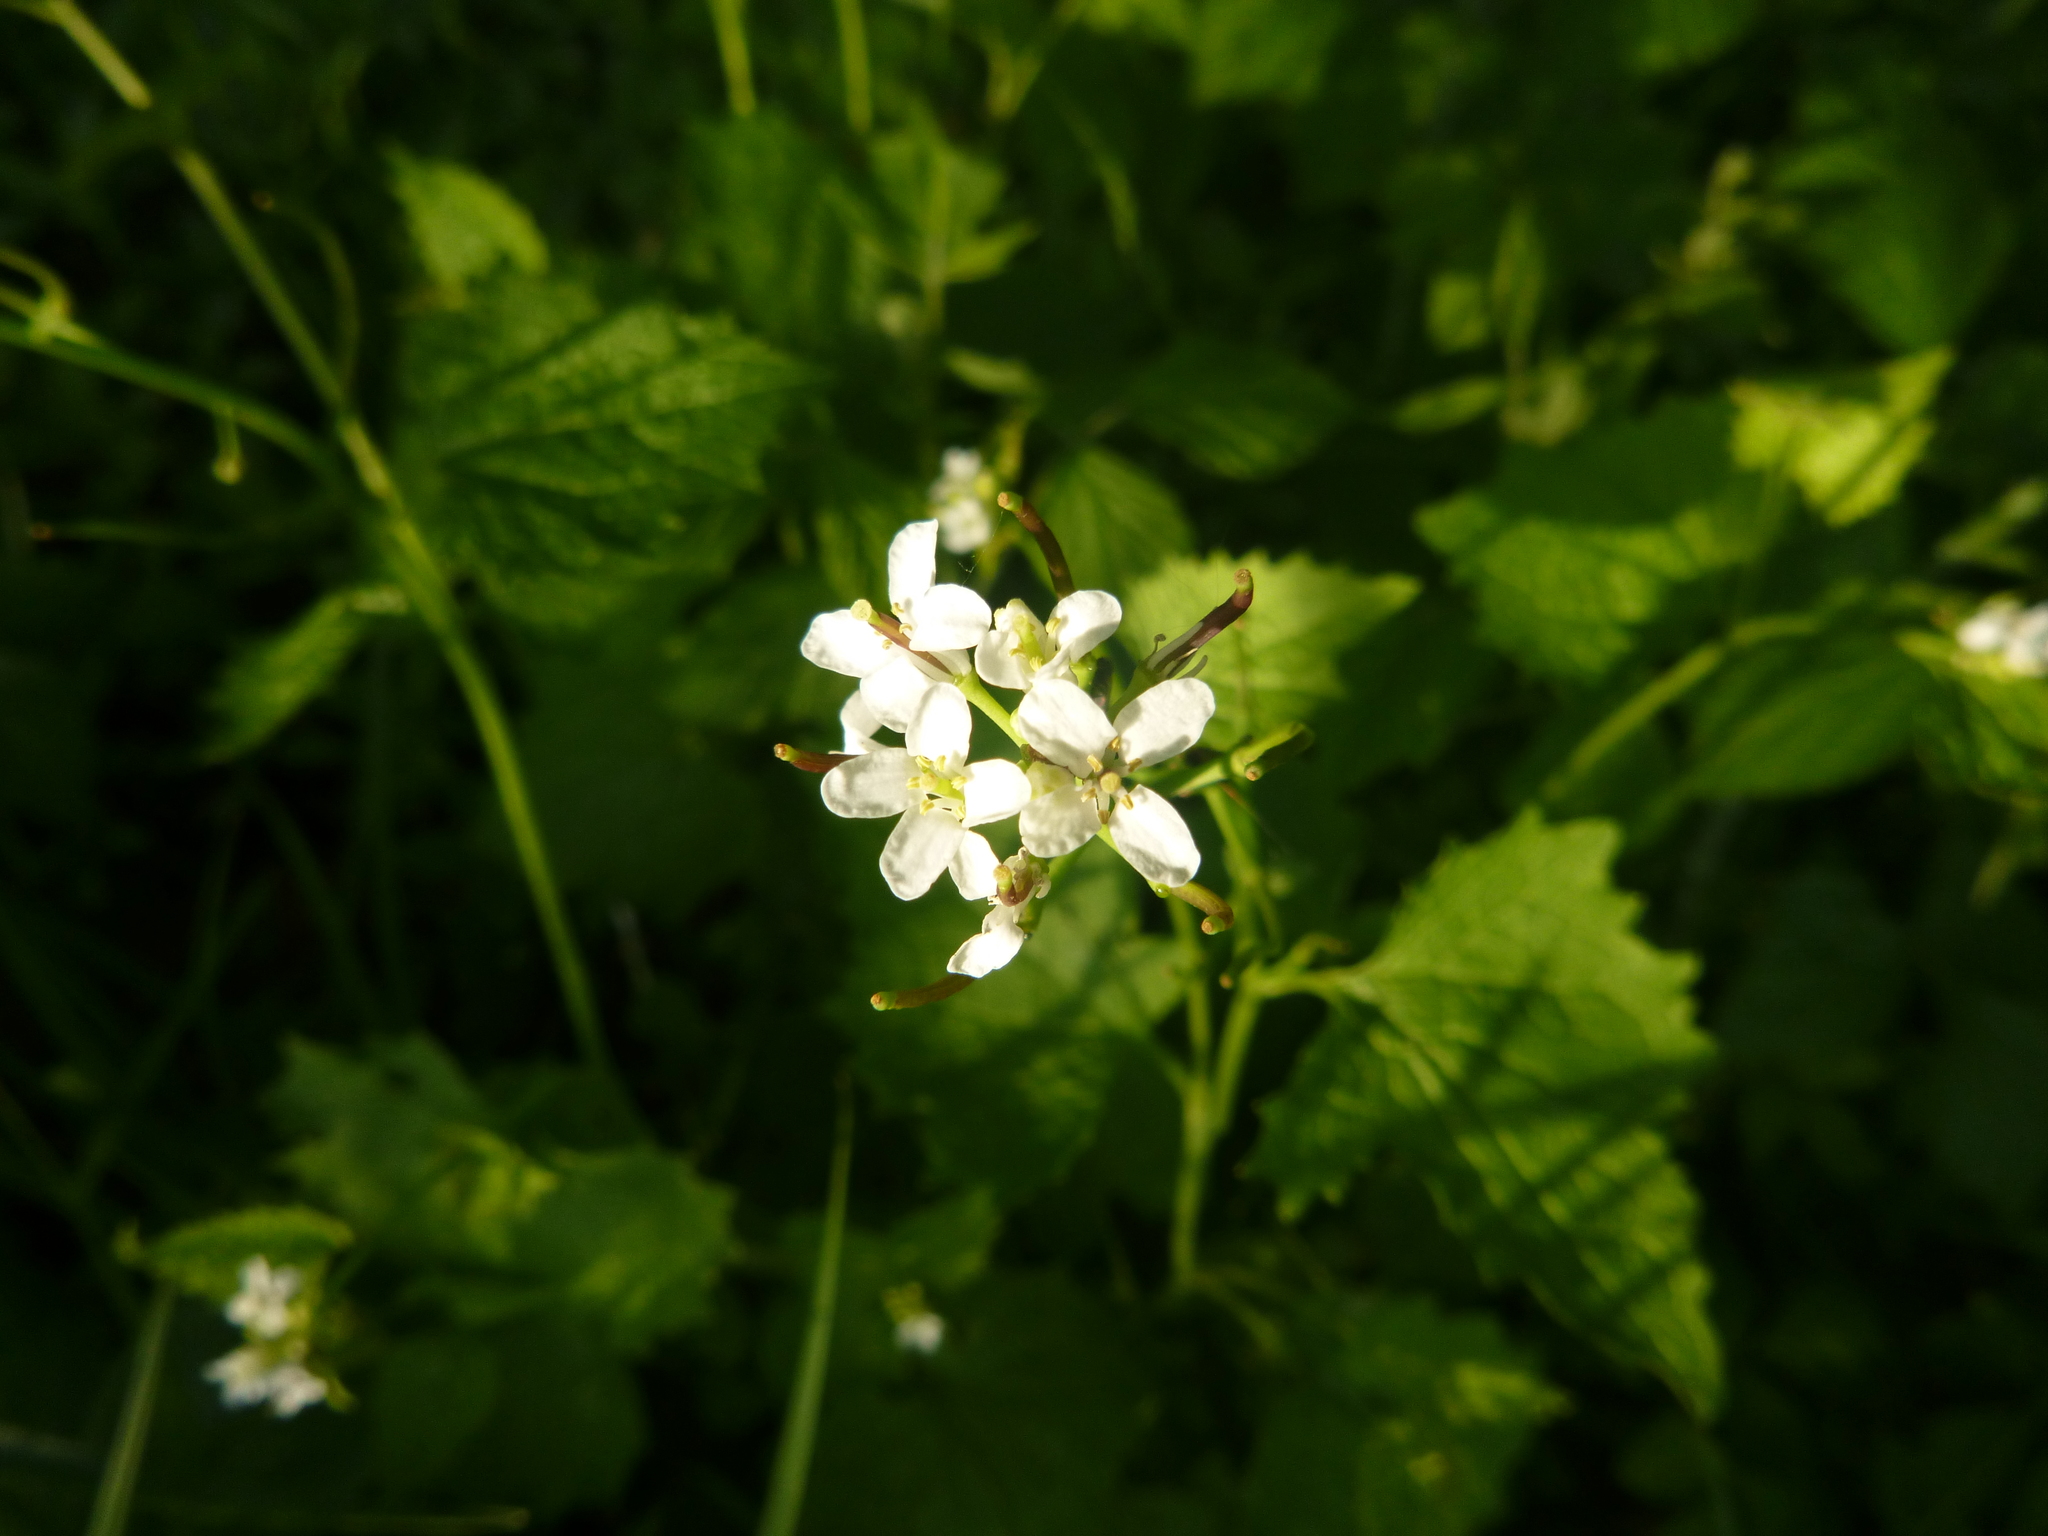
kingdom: Plantae
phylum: Tracheophyta
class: Magnoliopsida
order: Brassicales
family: Brassicaceae
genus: Alliaria
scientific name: Alliaria petiolata
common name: Garlic mustard
